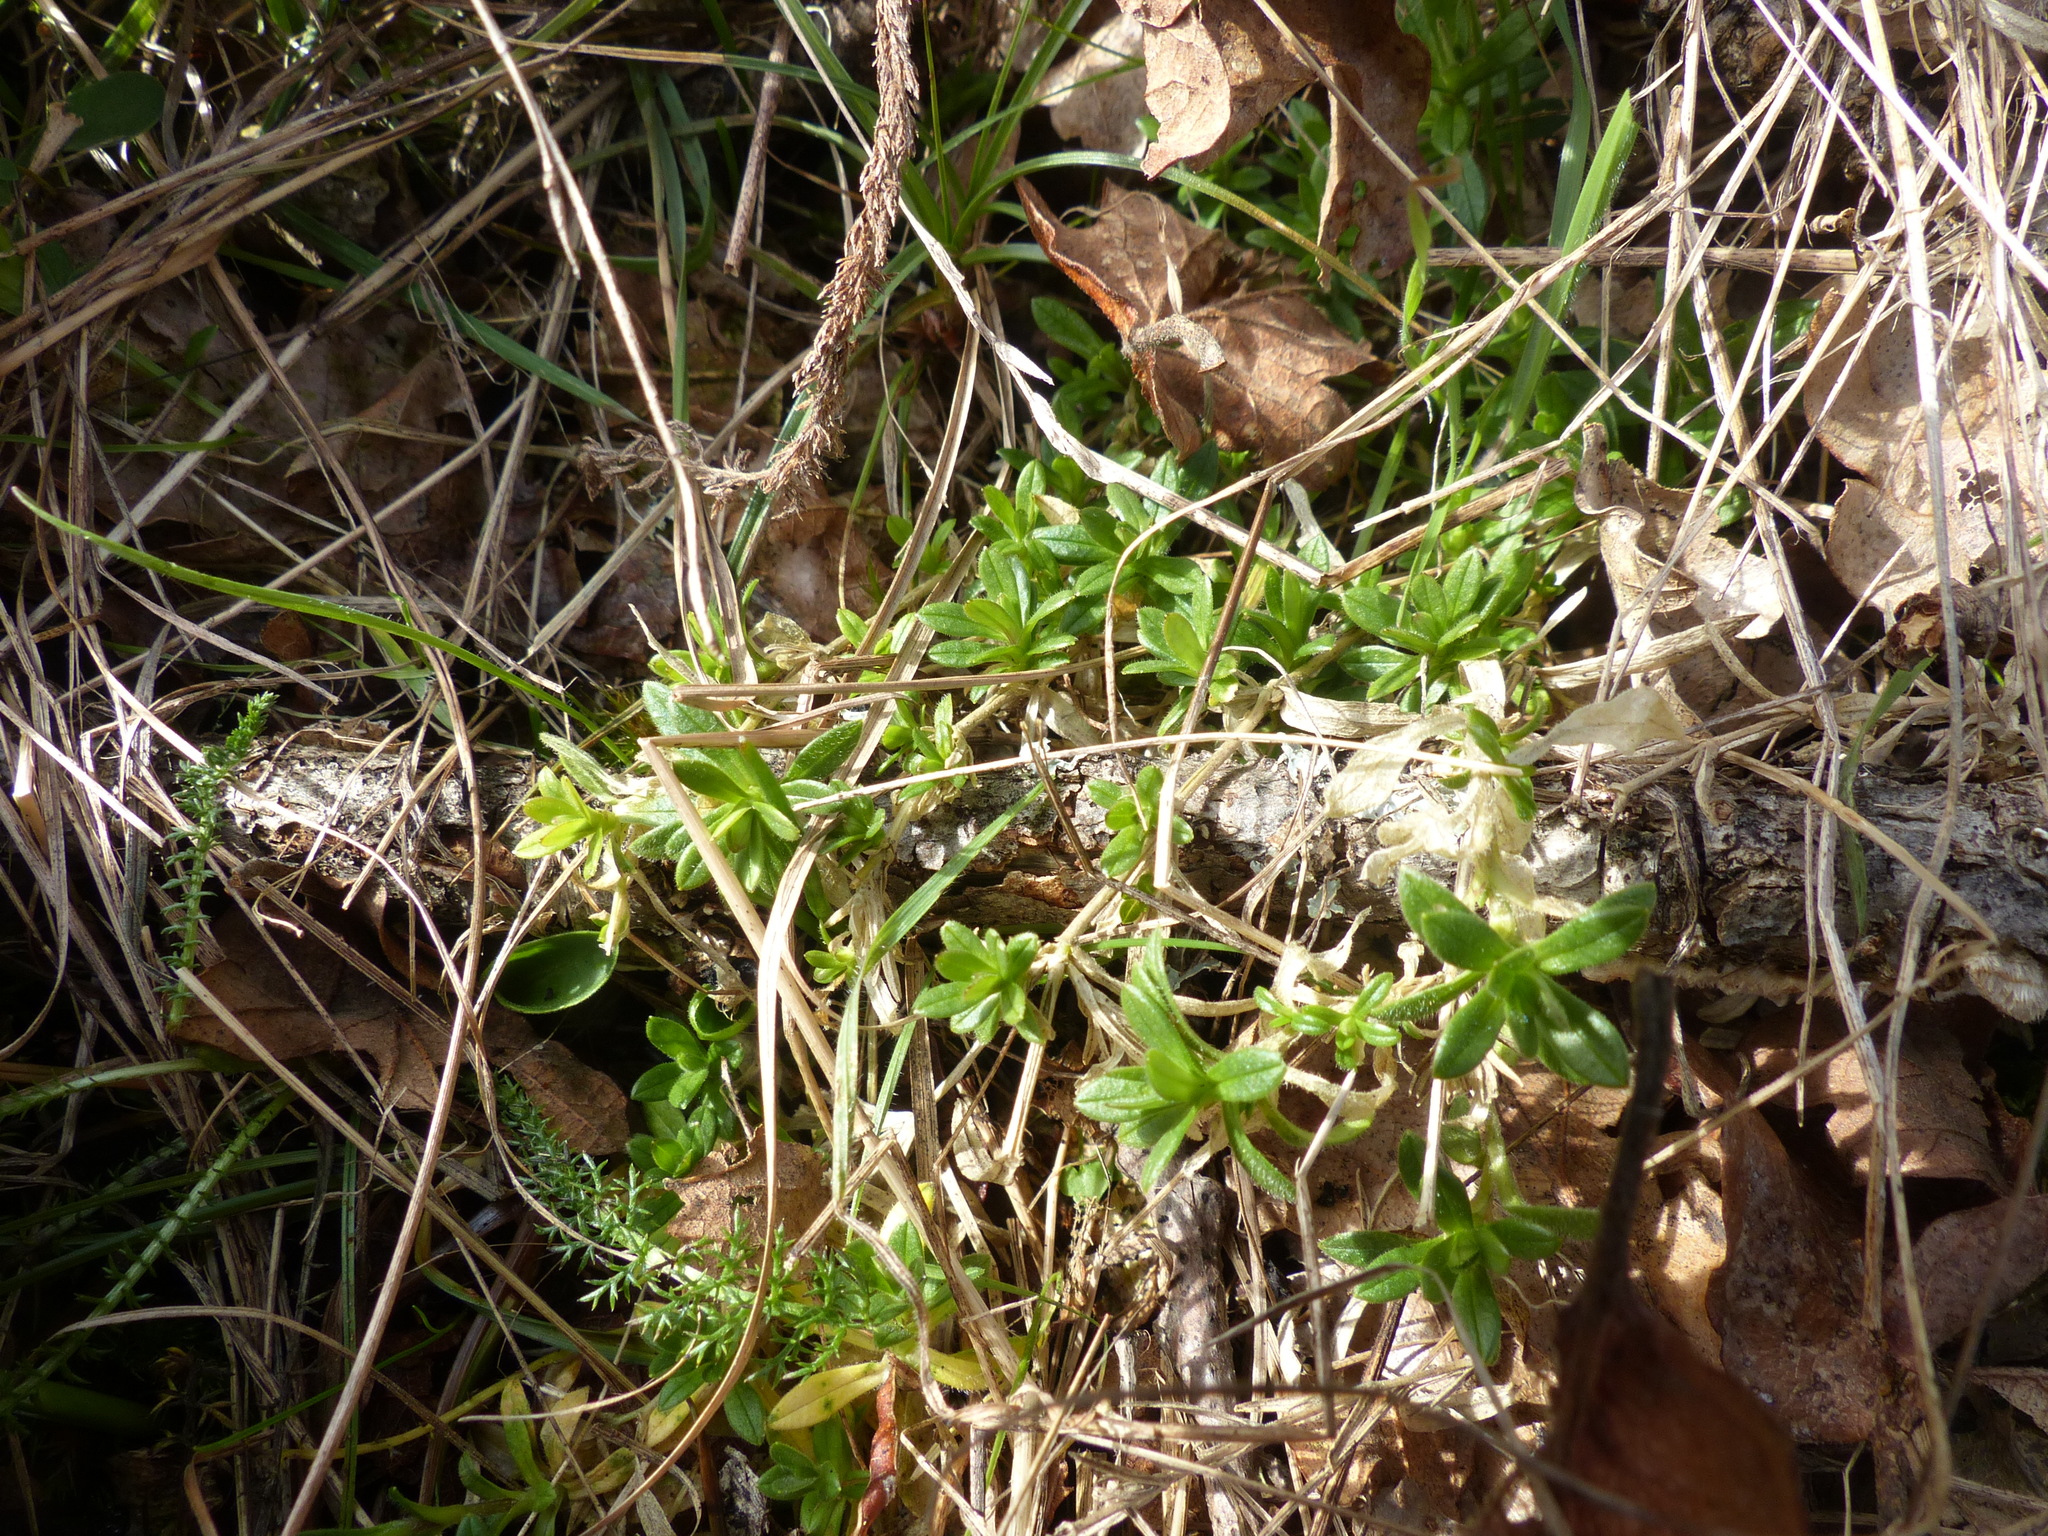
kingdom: Plantae
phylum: Tracheophyta
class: Magnoliopsida
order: Caryophyllales
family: Caryophyllaceae
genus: Cerastium
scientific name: Cerastium arvense
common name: Field mouse-ear
